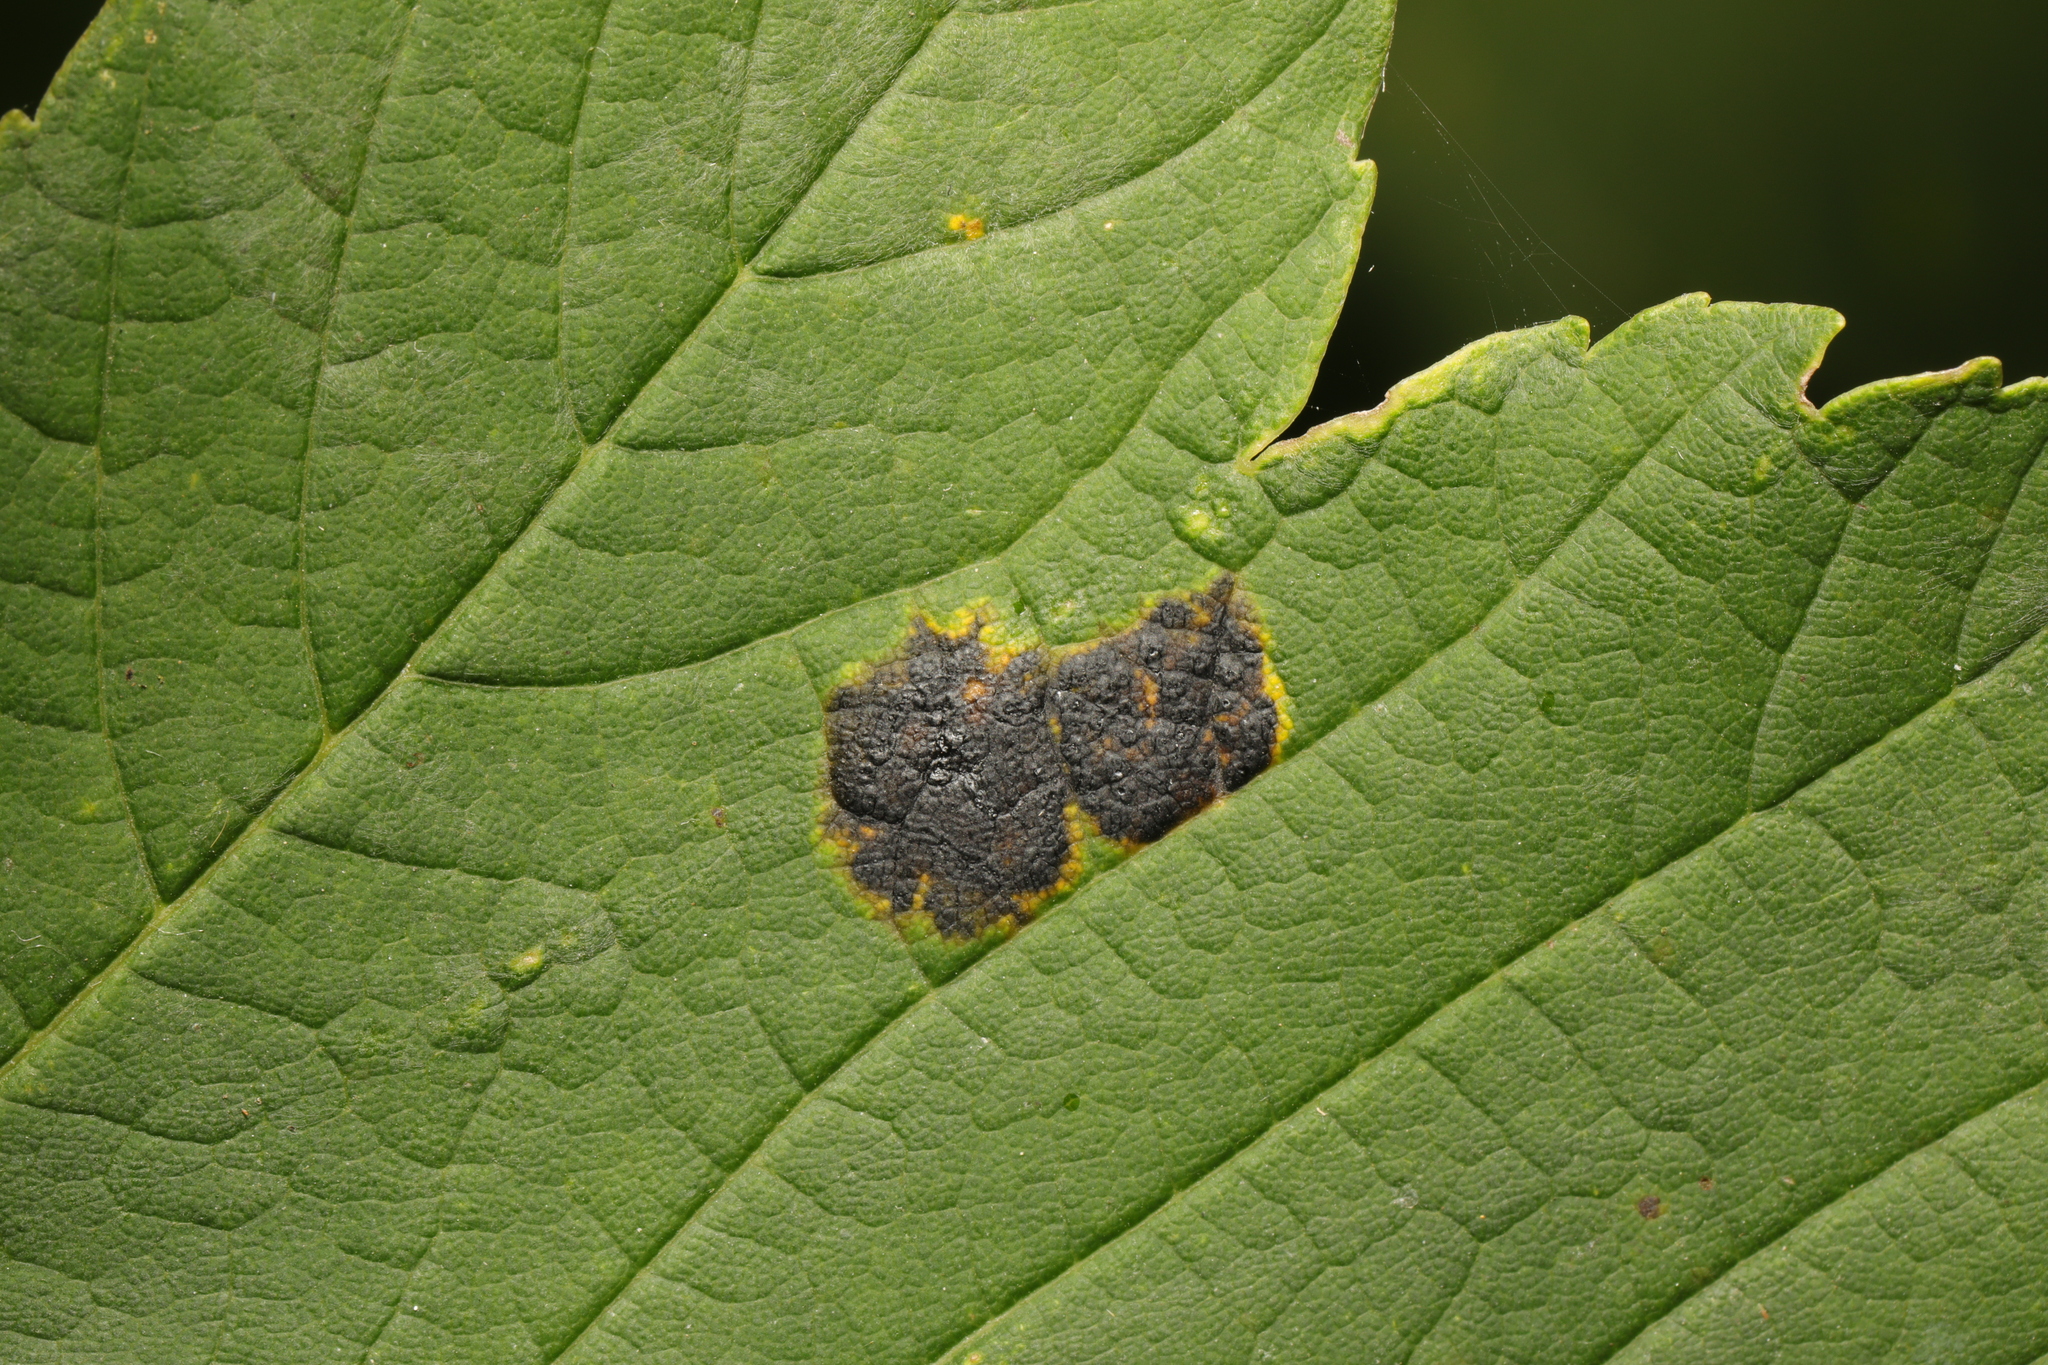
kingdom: Fungi
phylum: Ascomycota
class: Leotiomycetes
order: Rhytismatales
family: Rhytismataceae
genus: Rhytisma
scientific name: Rhytisma acerinum
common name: European tar spot
